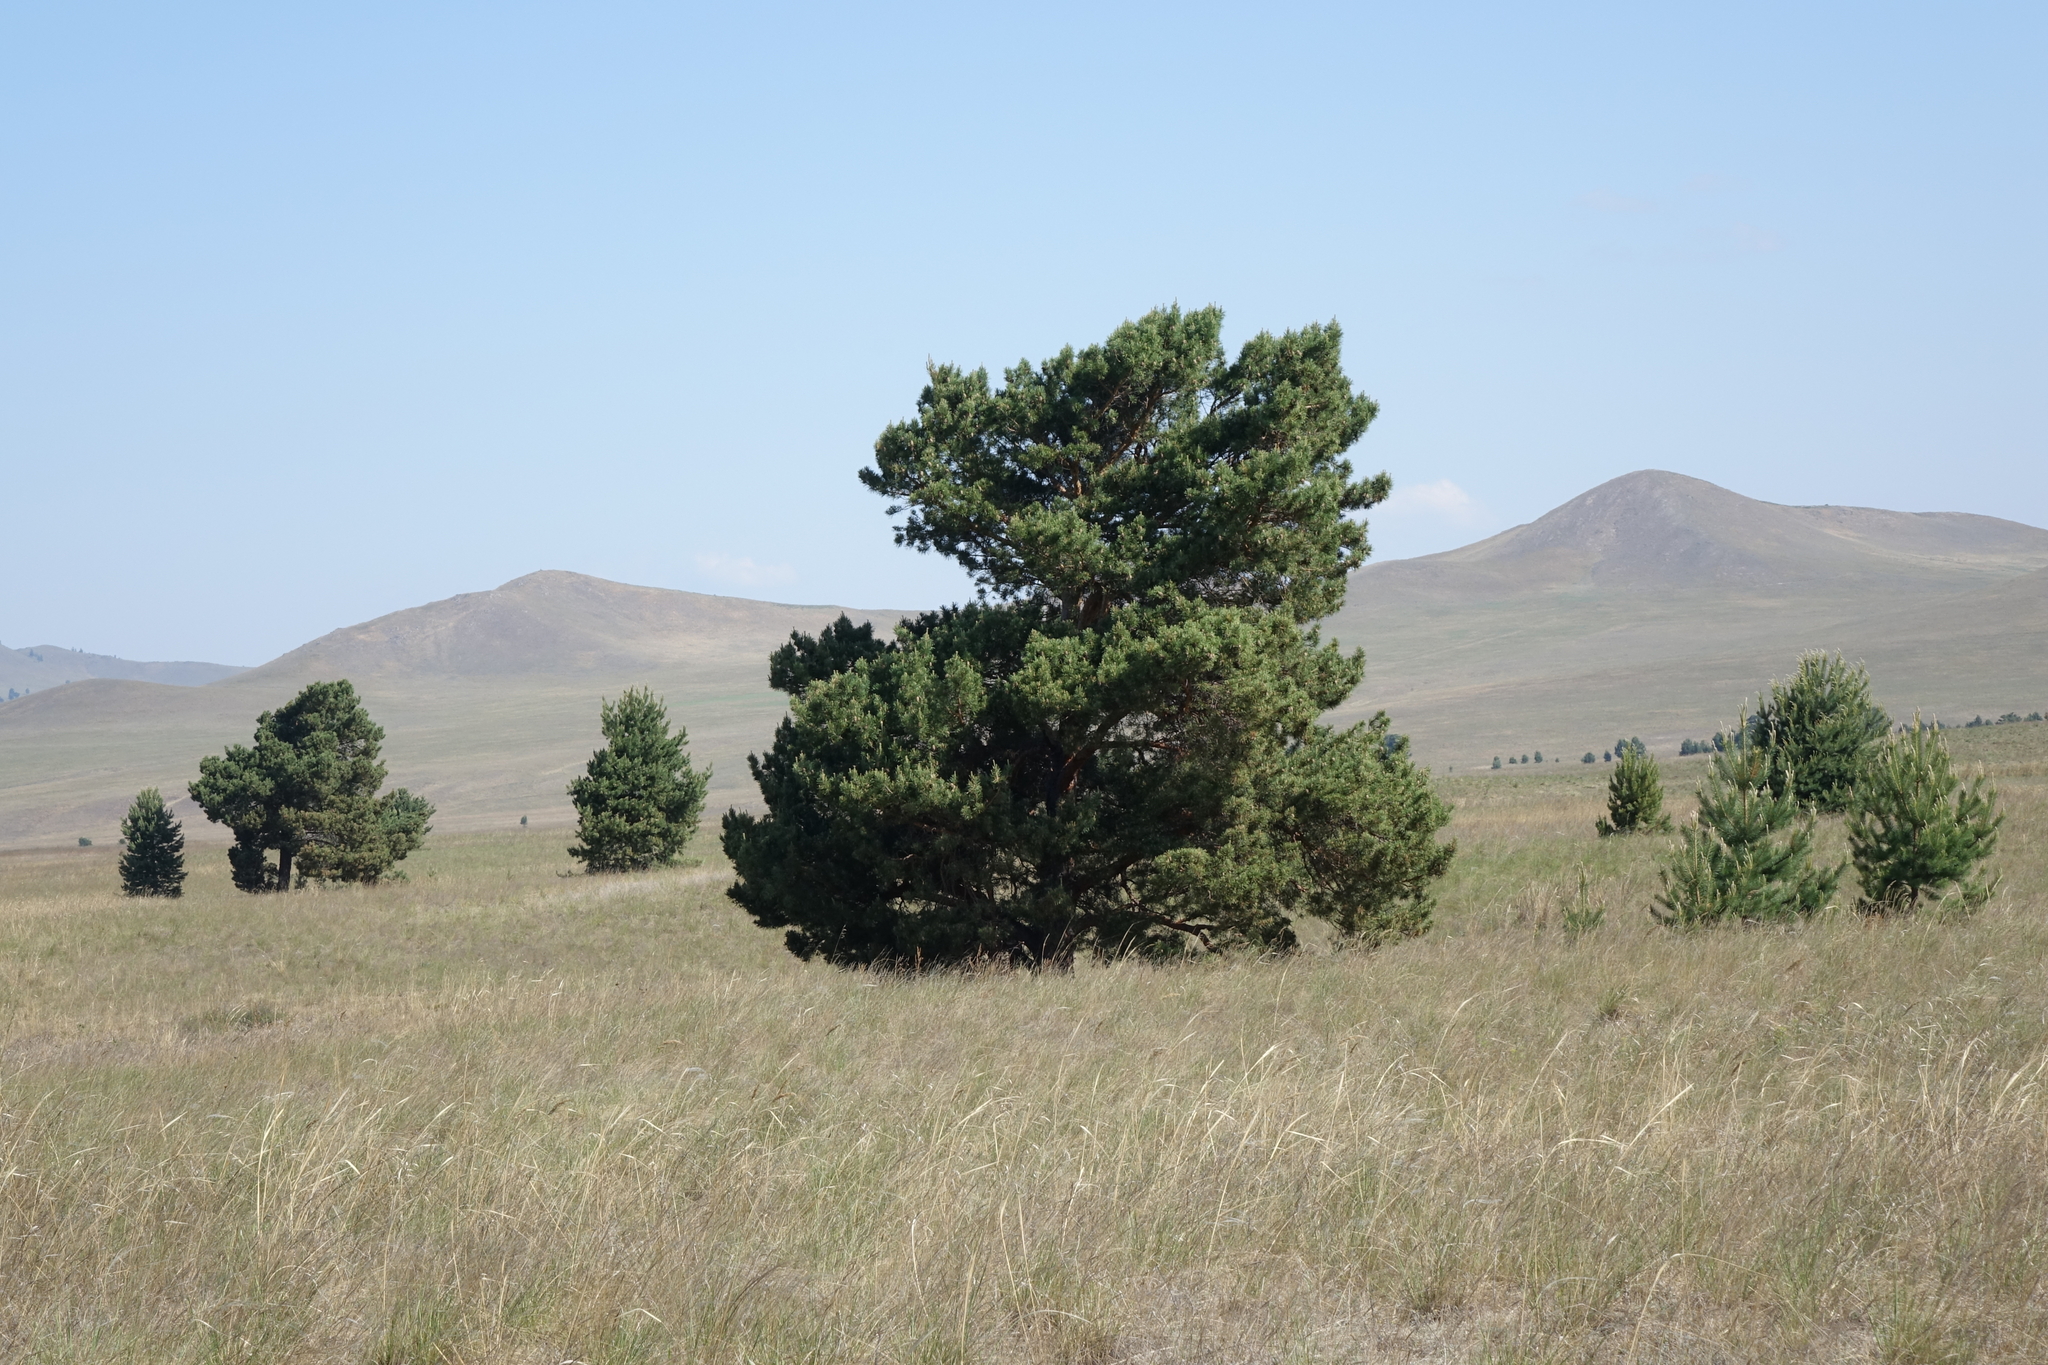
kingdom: Plantae
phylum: Tracheophyta
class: Pinopsida
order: Pinales
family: Pinaceae
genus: Pinus
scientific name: Pinus sylvestris
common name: Scots pine
